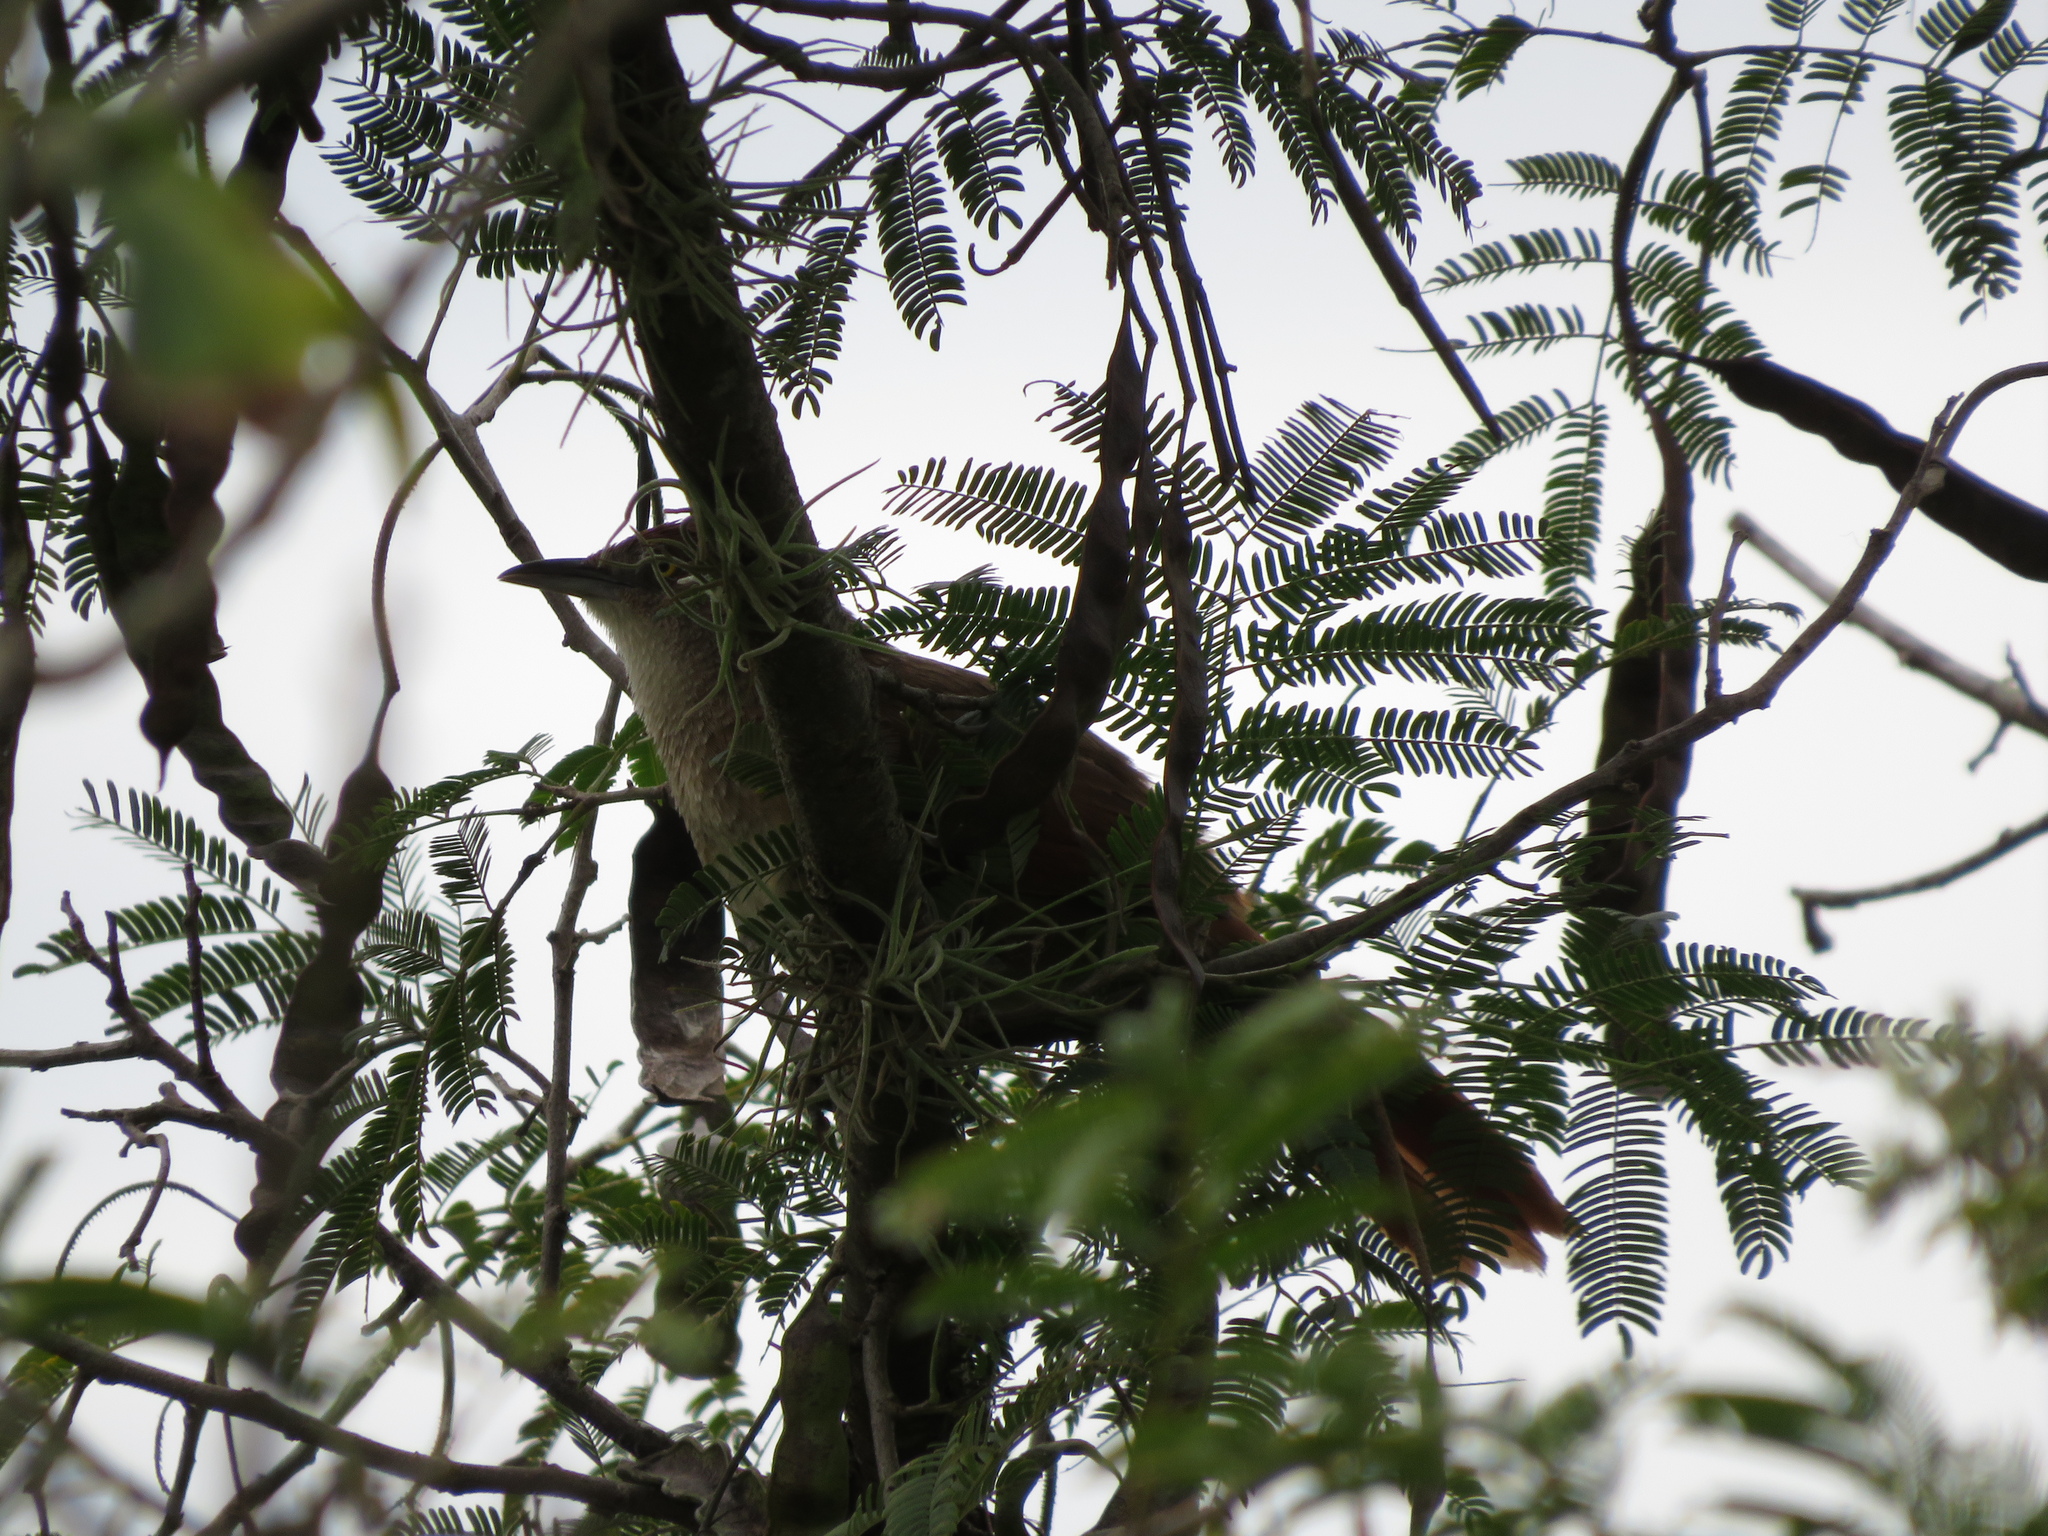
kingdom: Animalia
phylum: Chordata
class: Aves
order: Passeriformes
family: Furnariidae
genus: Phacellodomus
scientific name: Phacellodomus ruber
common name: Greater thornbird
